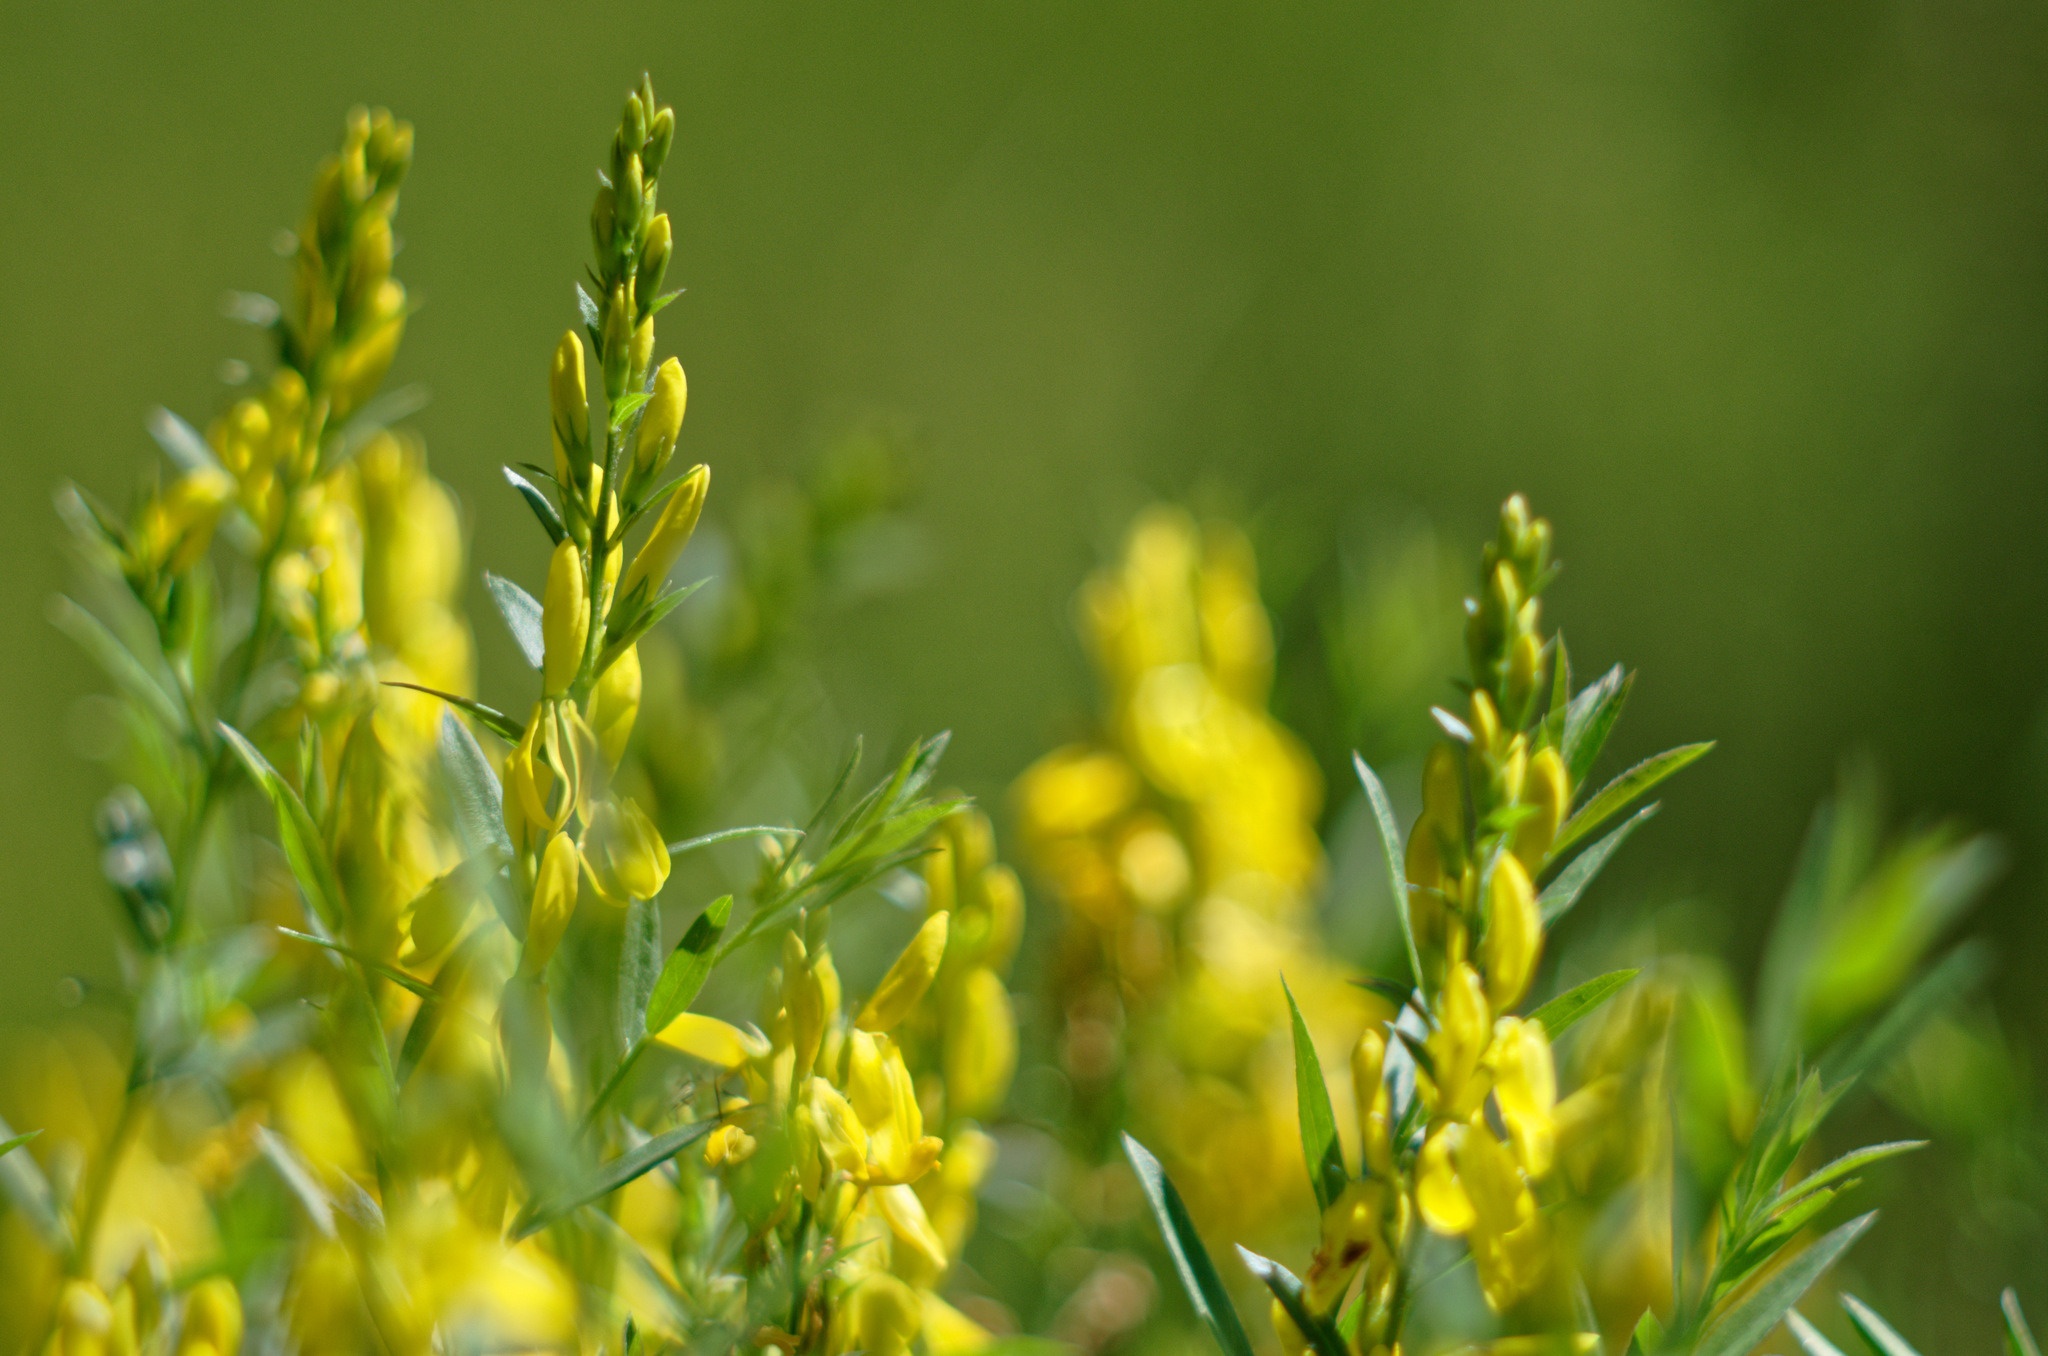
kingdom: Plantae
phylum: Tracheophyta
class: Magnoliopsida
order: Fabales
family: Fabaceae
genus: Genista
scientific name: Genista tinctoria
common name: Dyer's greenweed
